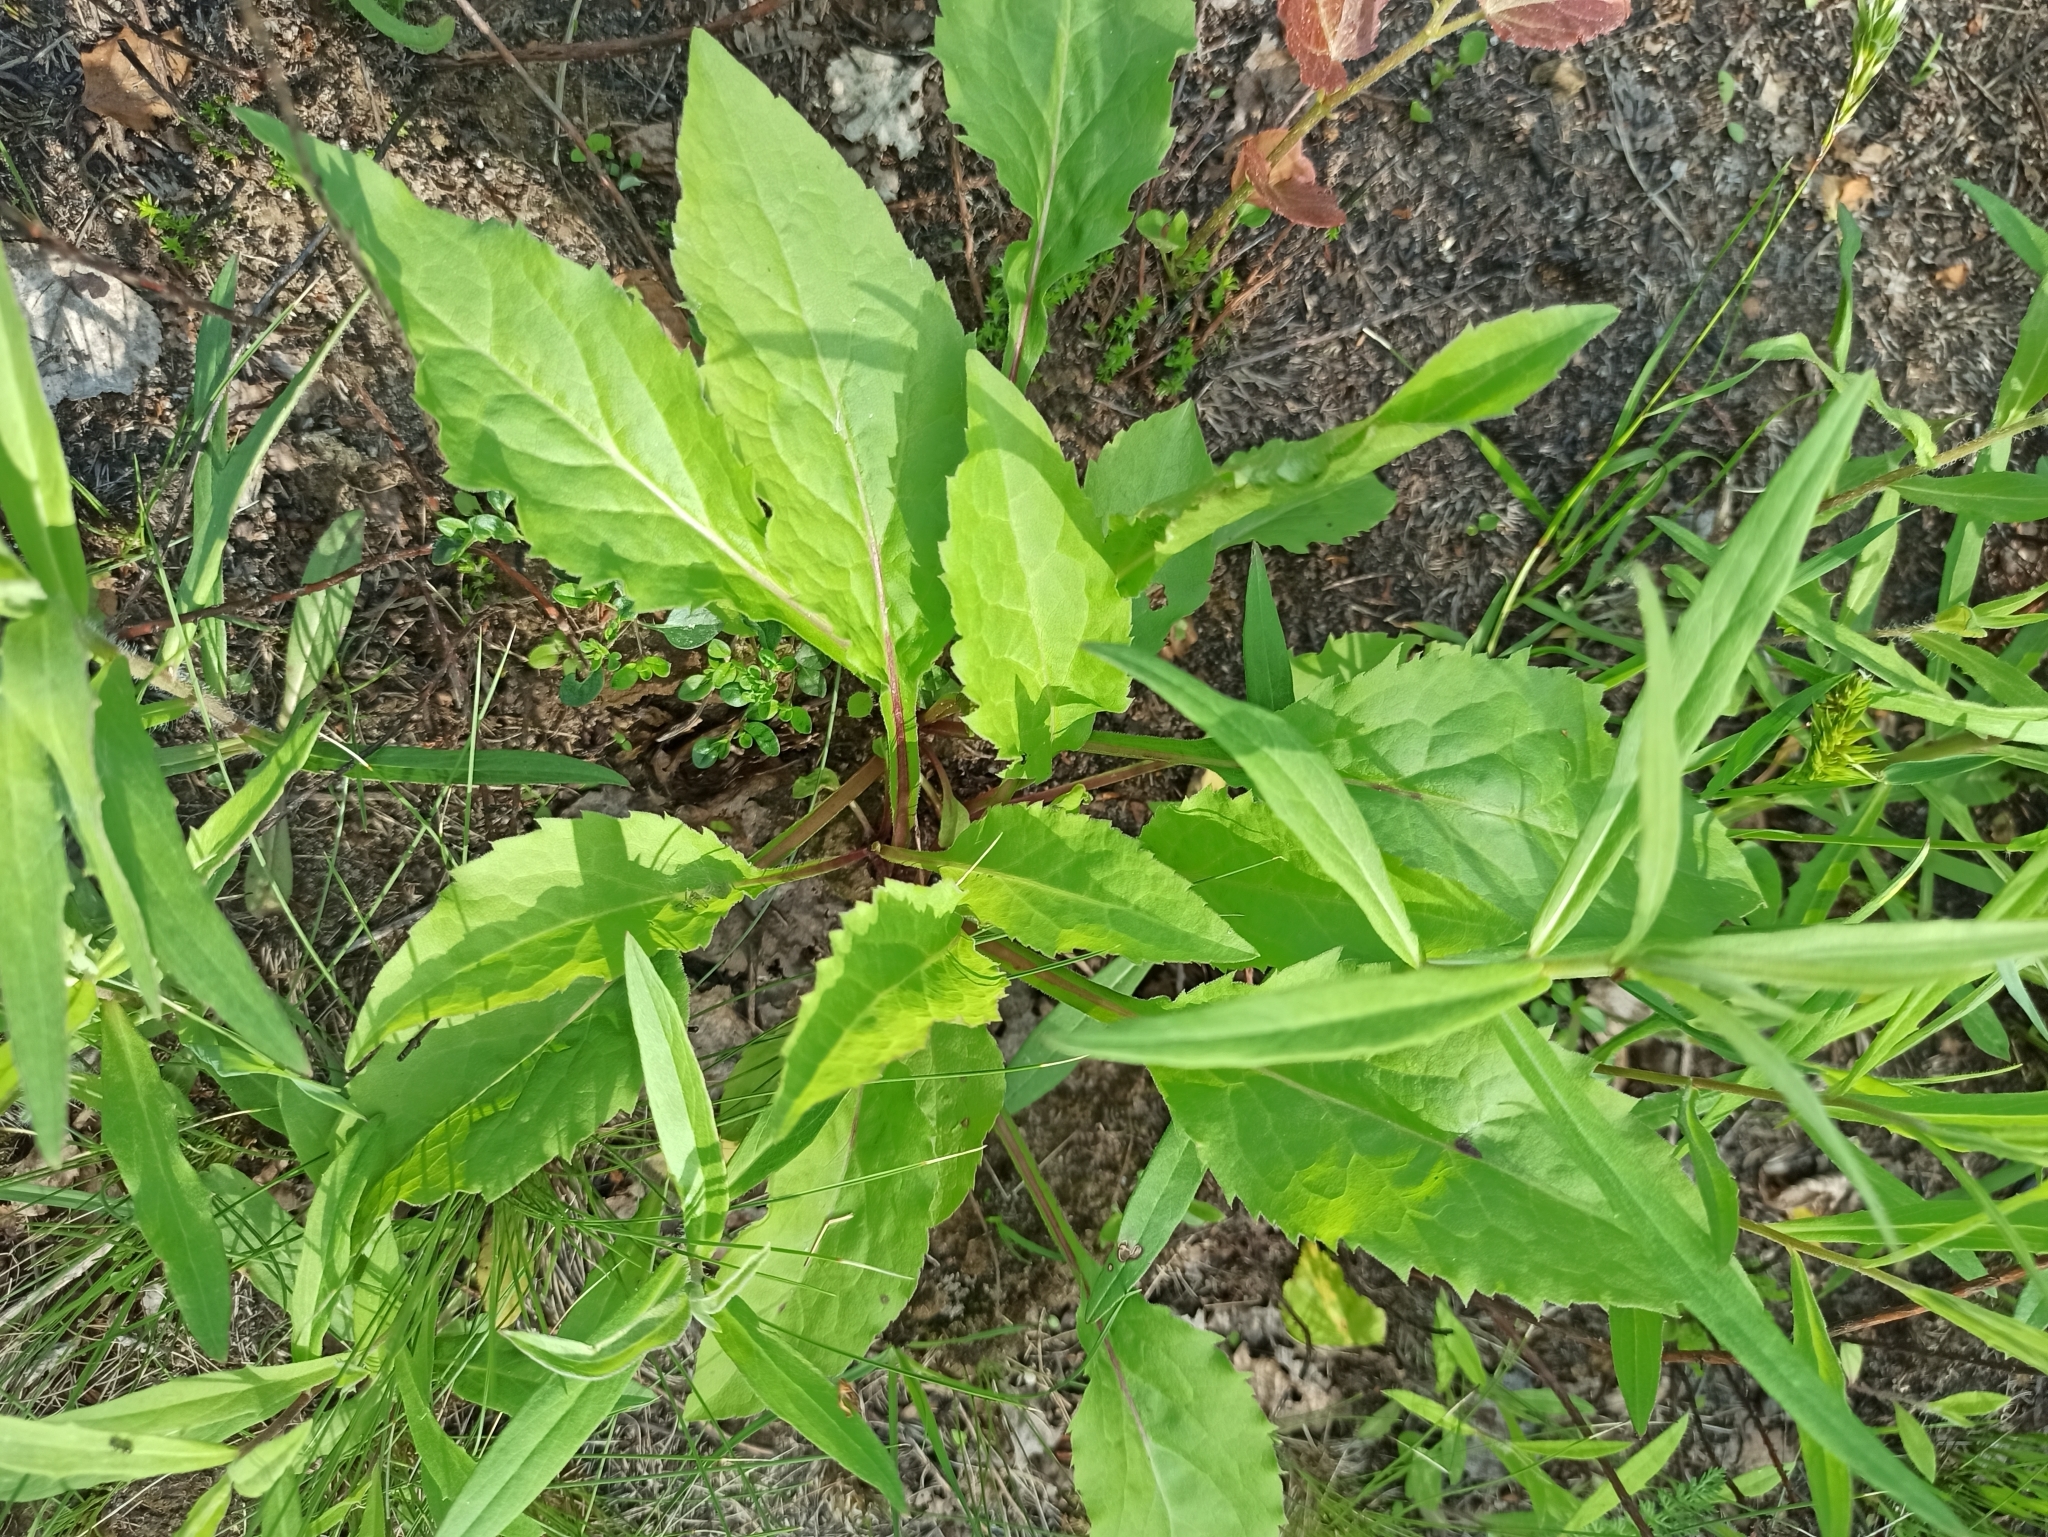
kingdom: Plantae
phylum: Tracheophyta
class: Magnoliopsida
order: Asterales
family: Asteraceae
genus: Solidago
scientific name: Solidago virgaurea
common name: Goldenrod
